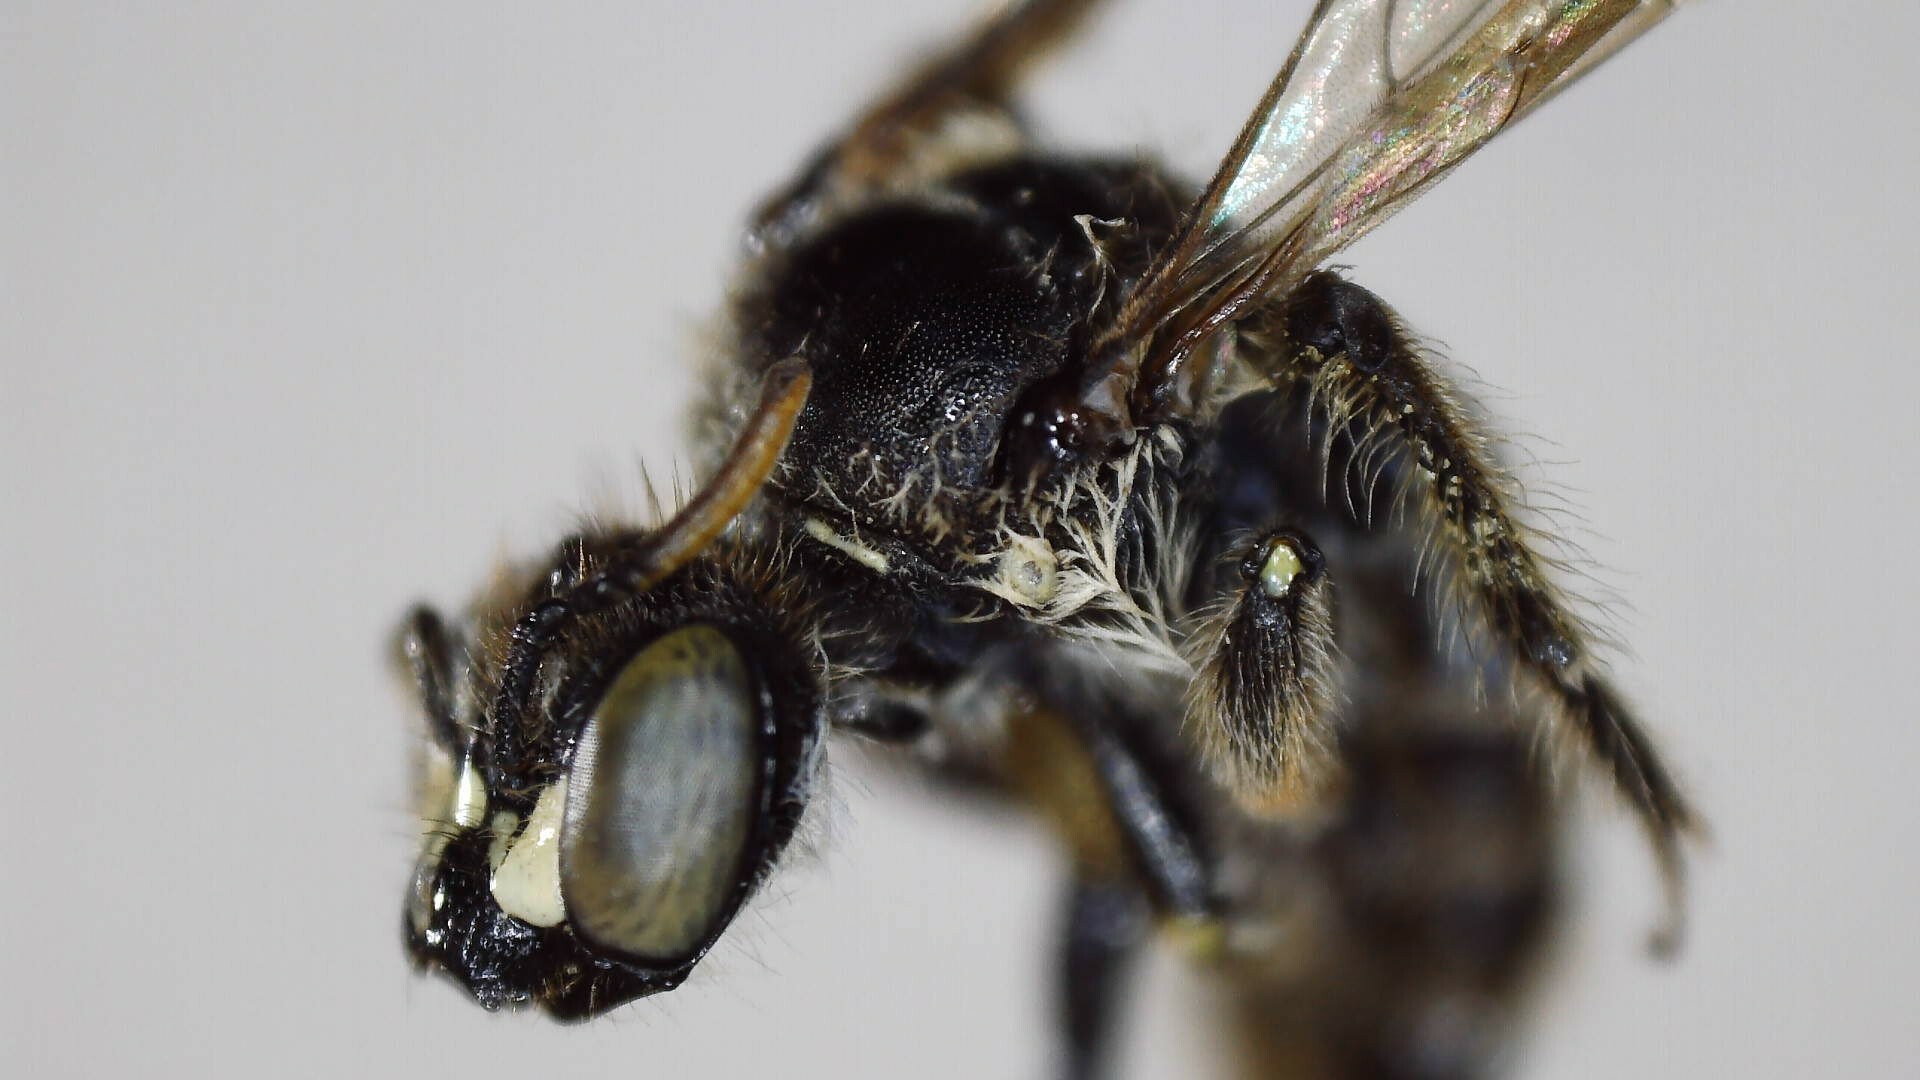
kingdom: Animalia
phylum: Arthropoda
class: Insecta
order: Hymenoptera
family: Andrenidae
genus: Calliopsis
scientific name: Calliopsis andreniformis
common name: Eastern calliopsis bee
